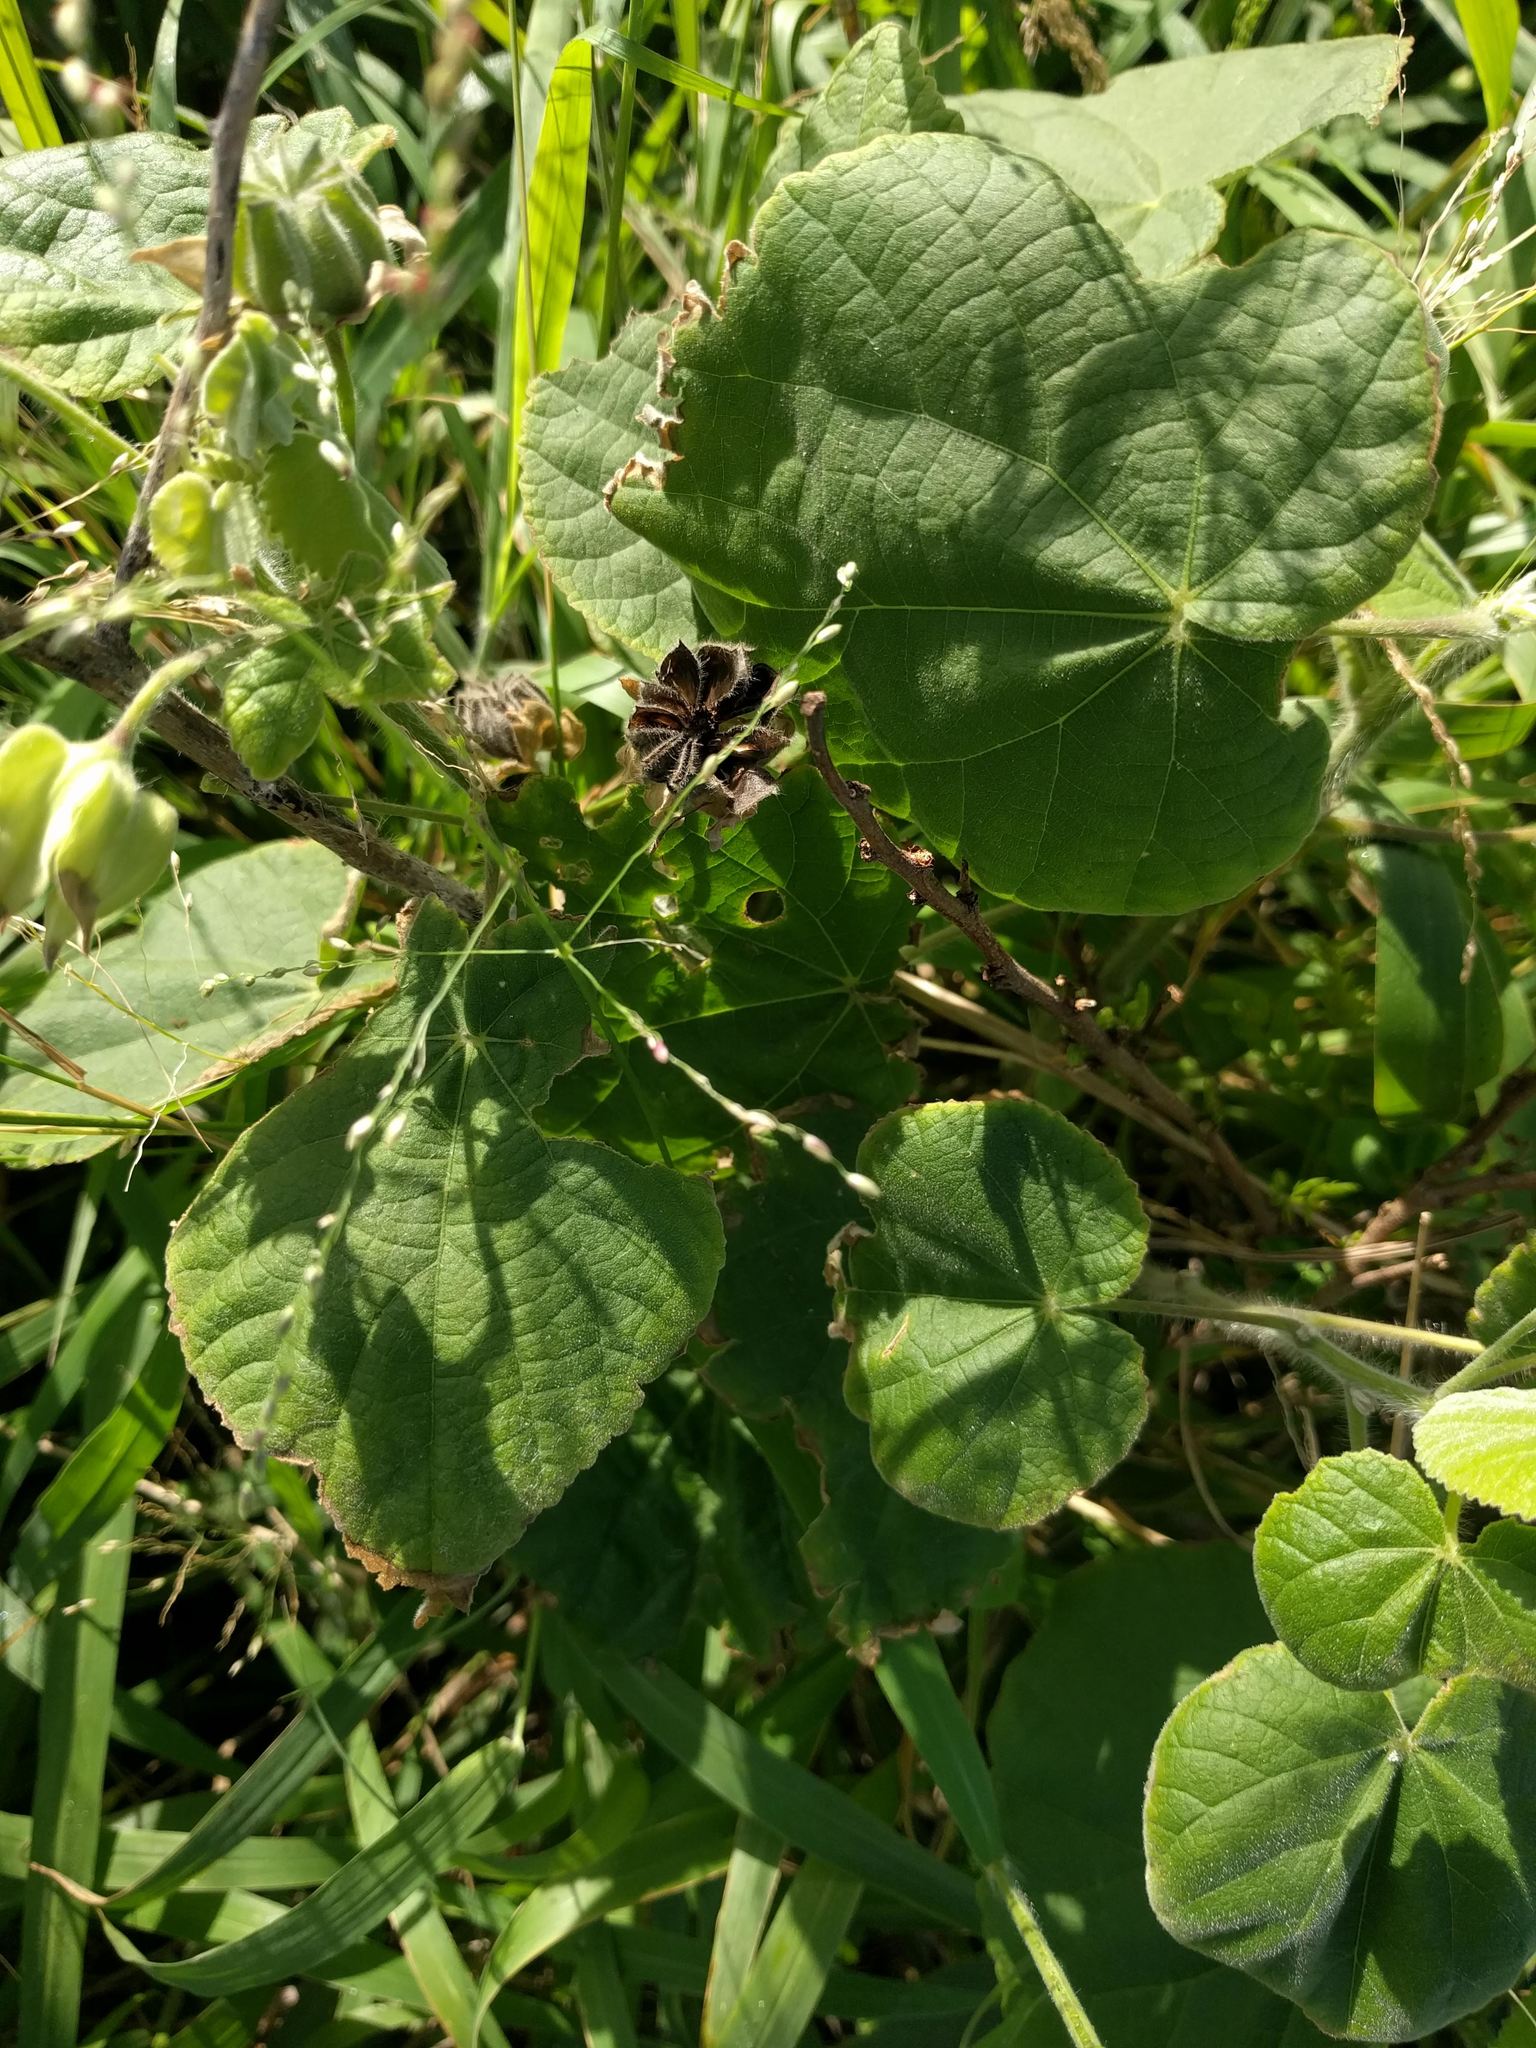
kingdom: Plantae
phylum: Tracheophyta
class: Magnoliopsida
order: Malvales
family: Malvaceae
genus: Abutilon
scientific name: Abutilon grandifolium
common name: Hairy abutilon
